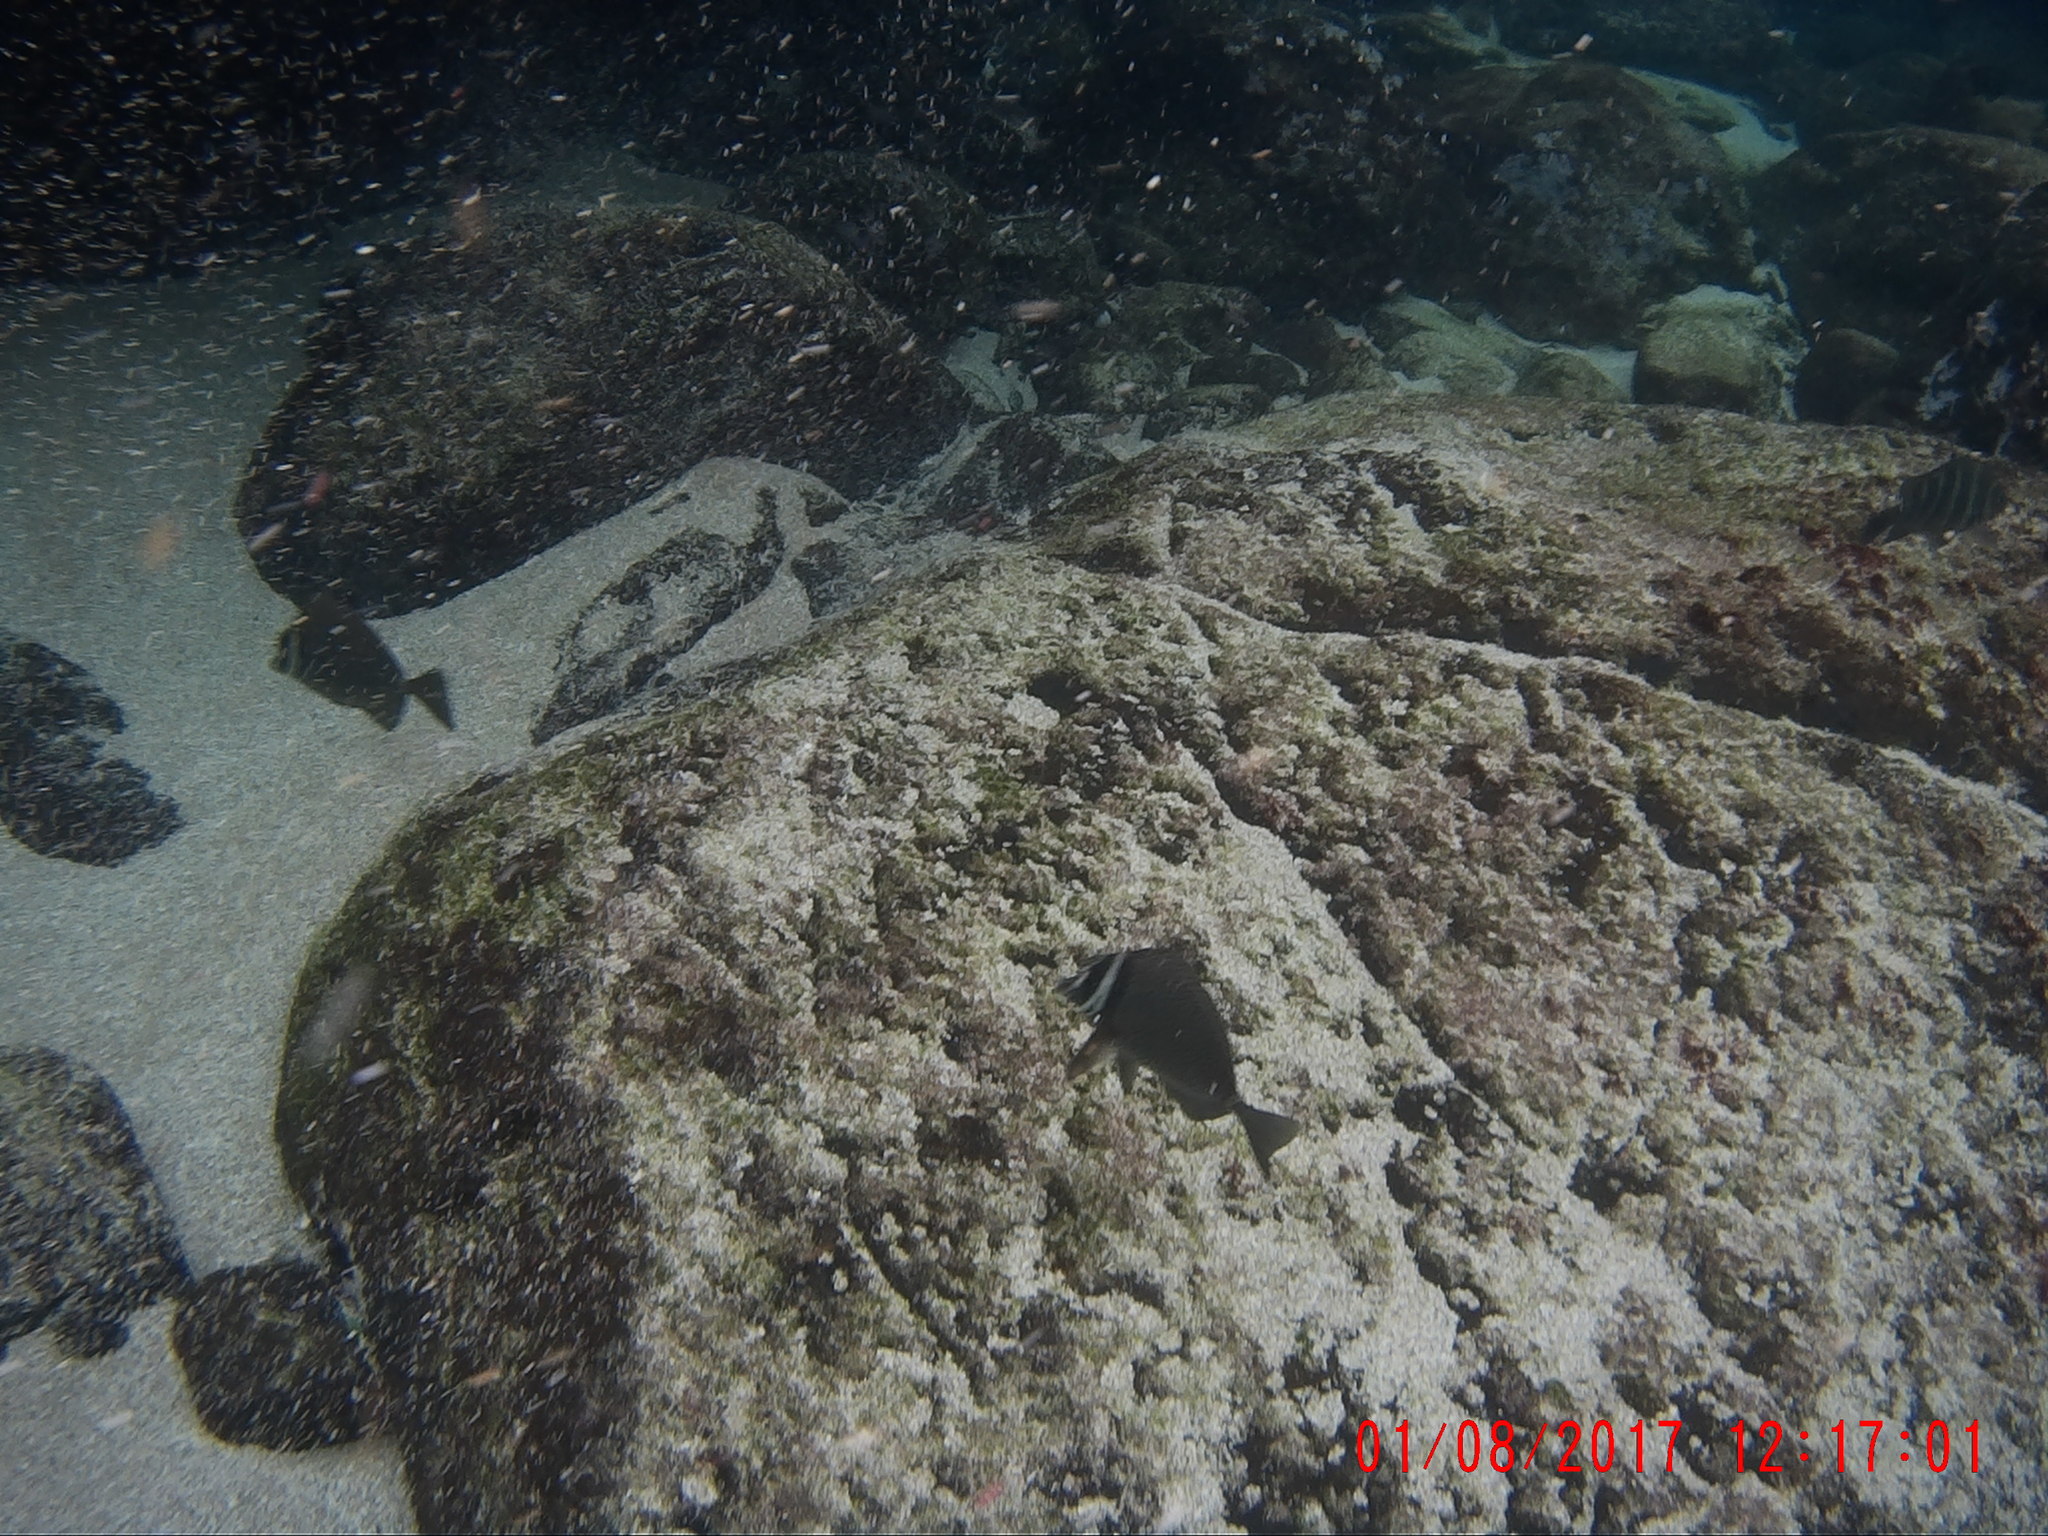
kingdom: Animalia
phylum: Chordata
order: Perciformes
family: Acanthuridae
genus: Prionurus
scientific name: Prionurus biafraensis
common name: Biafra doctorfish
